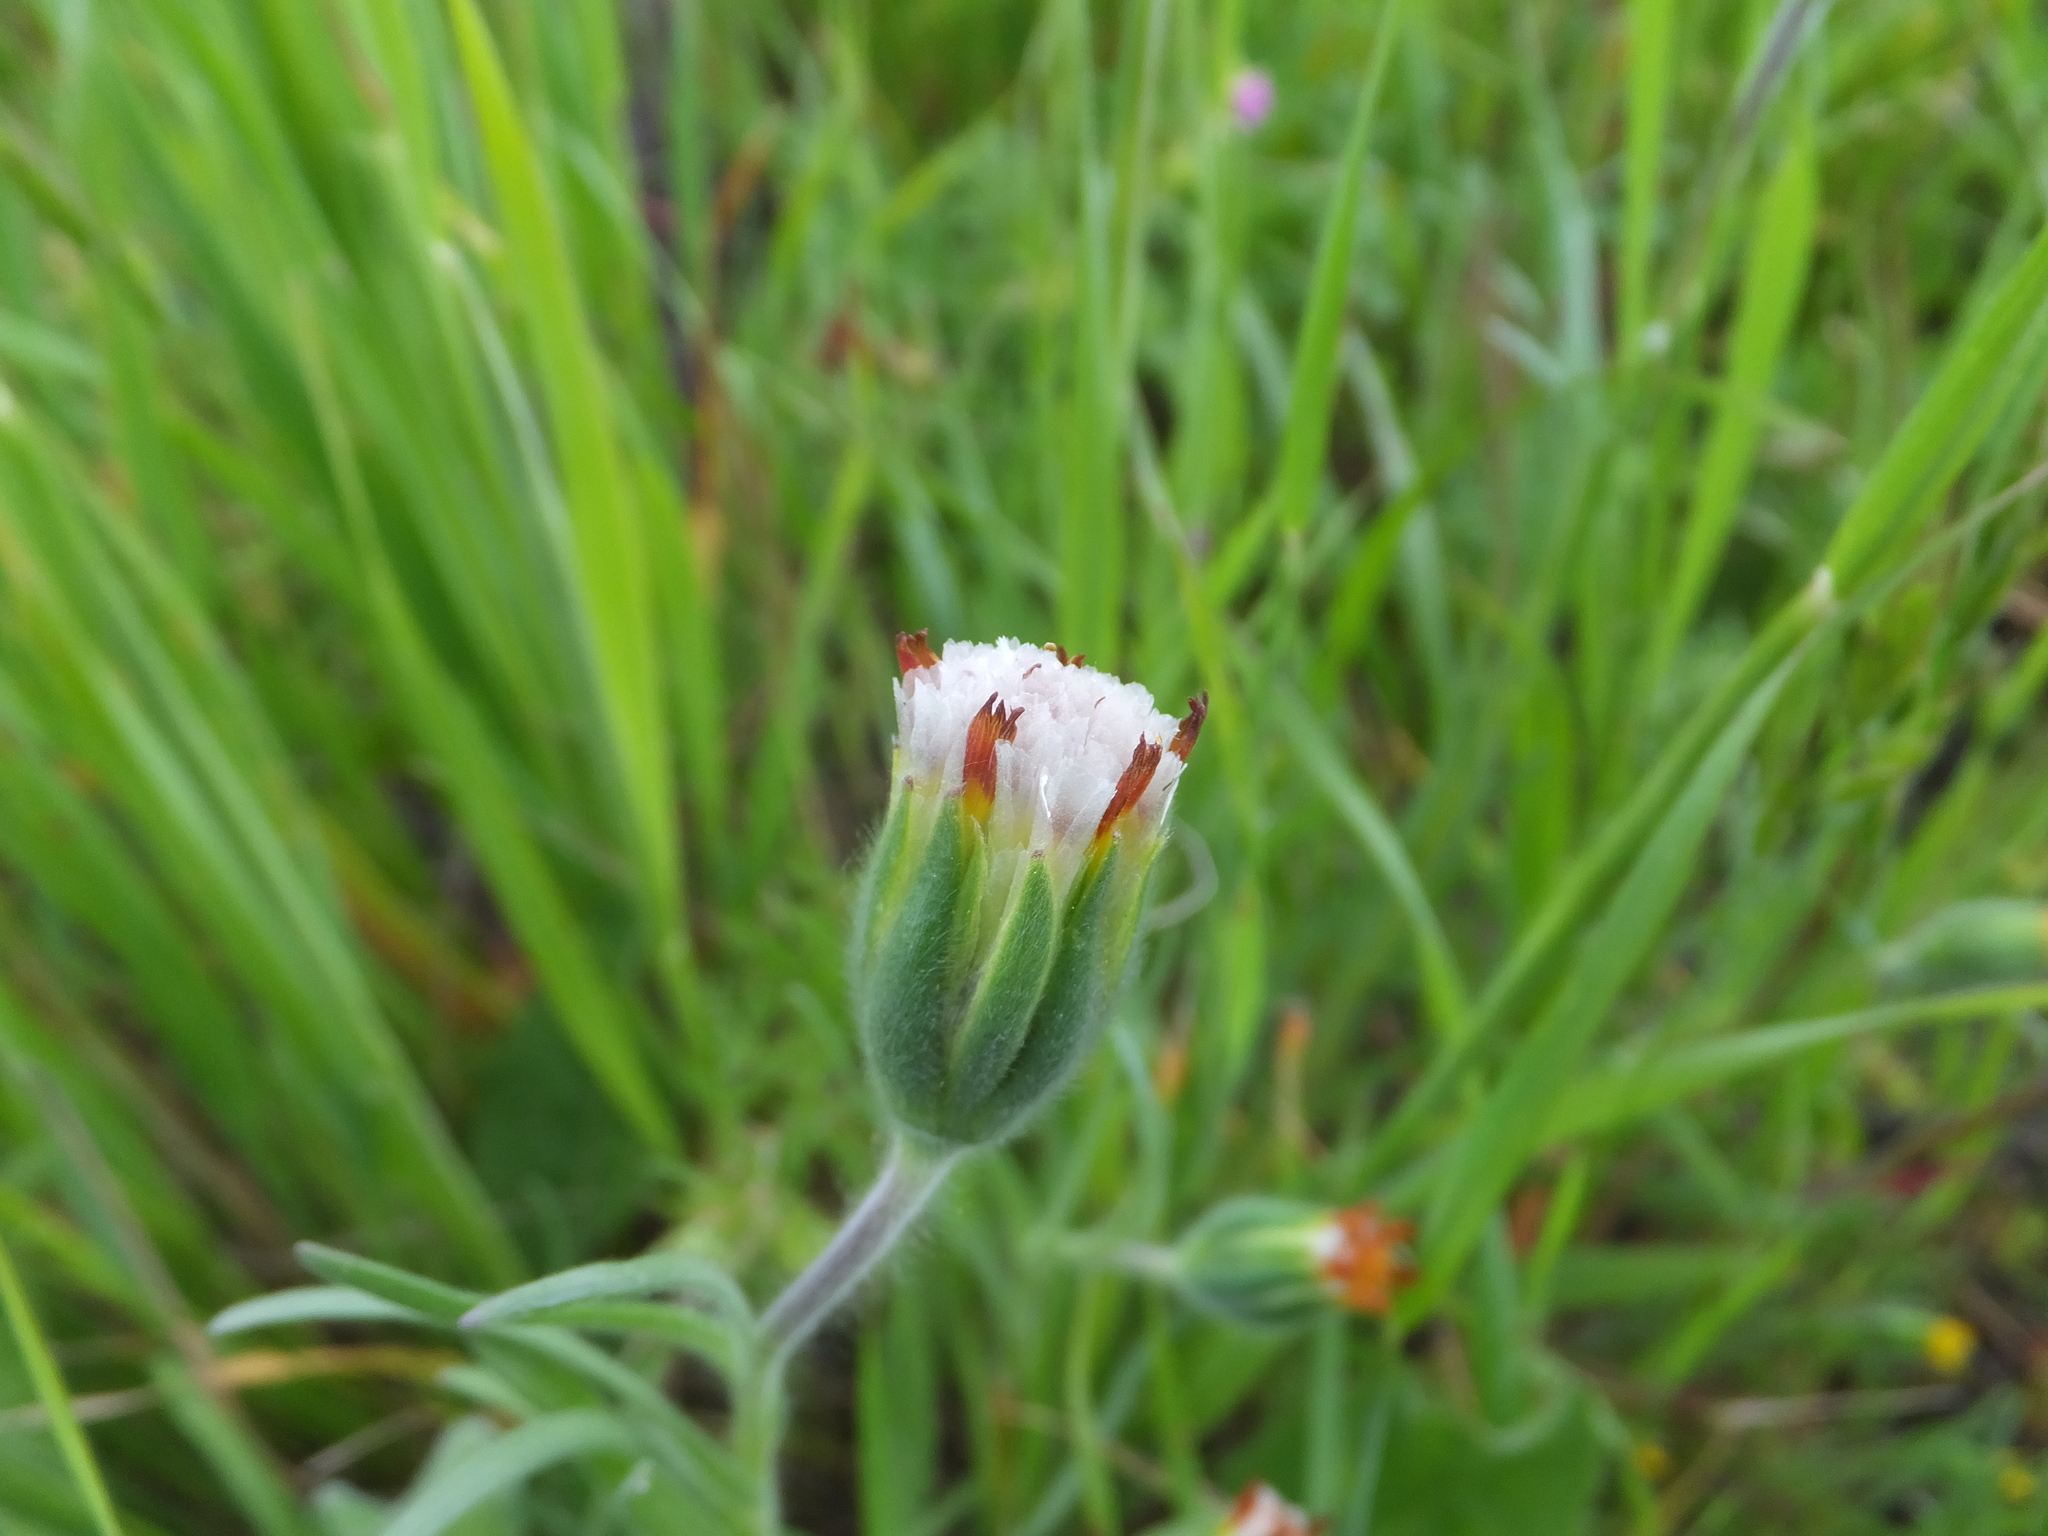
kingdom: Plantae
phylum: Tracheophyta
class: Magnoliopsida
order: Asterales
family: Asteraceae
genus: Achyrachaena
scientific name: Achyrachaena mollis
